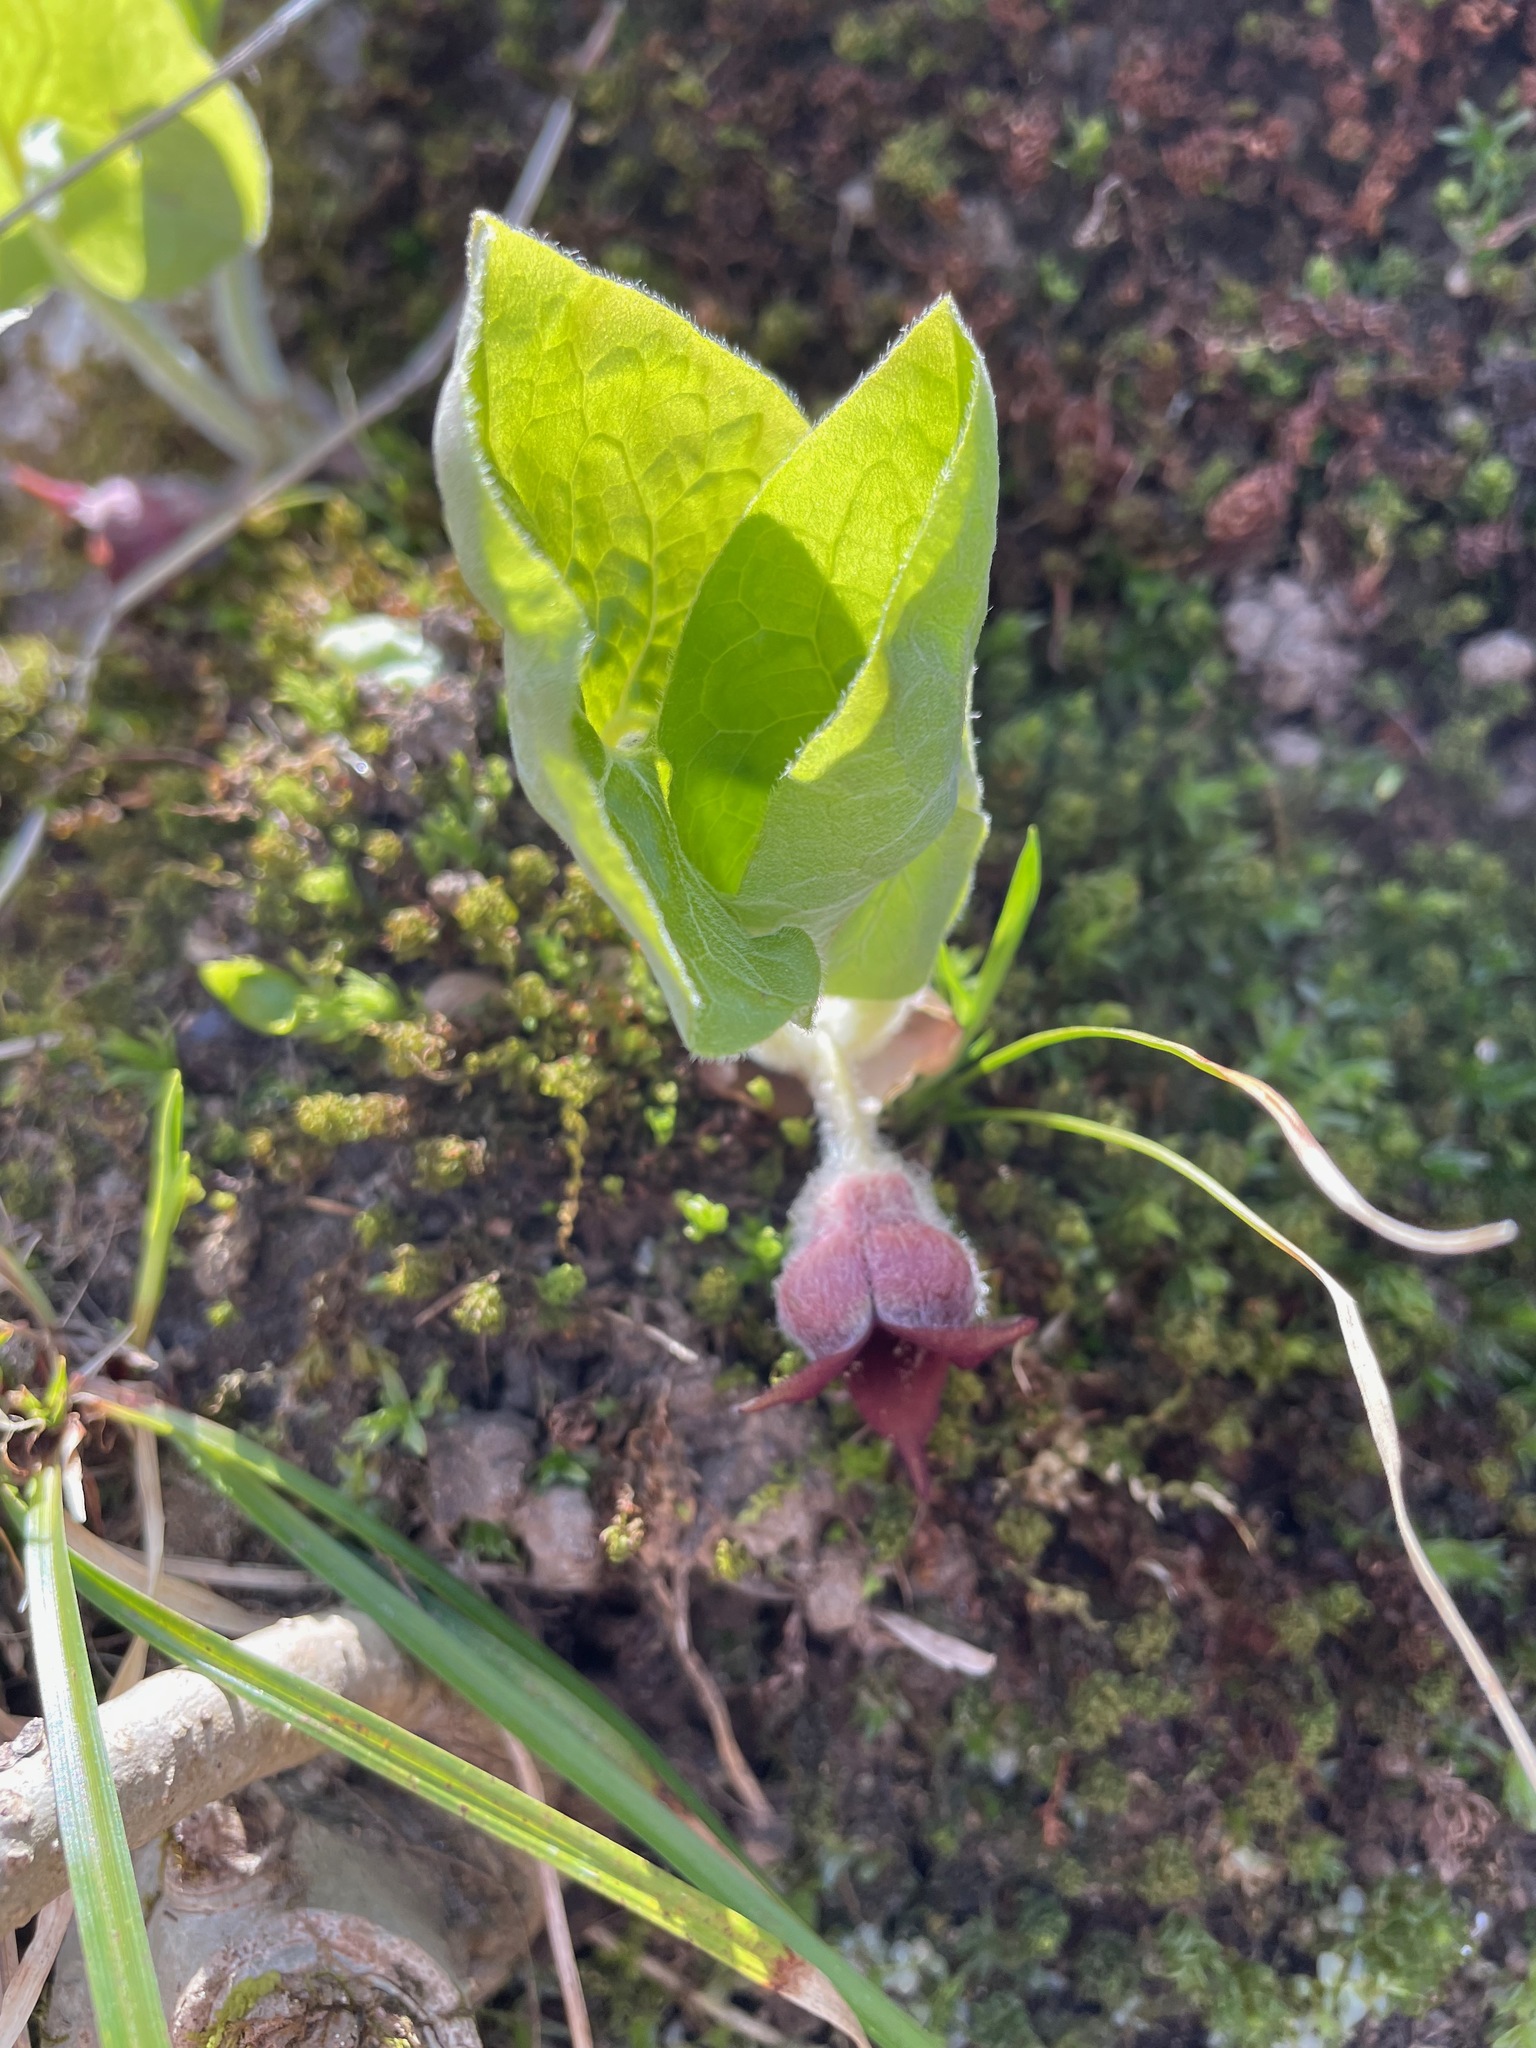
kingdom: Plantae
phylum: Tracheophyta
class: Magnoliopsida
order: Piperales
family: Aristolochiaceae
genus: Asarum
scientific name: Asarum canadense
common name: Wild ginger
